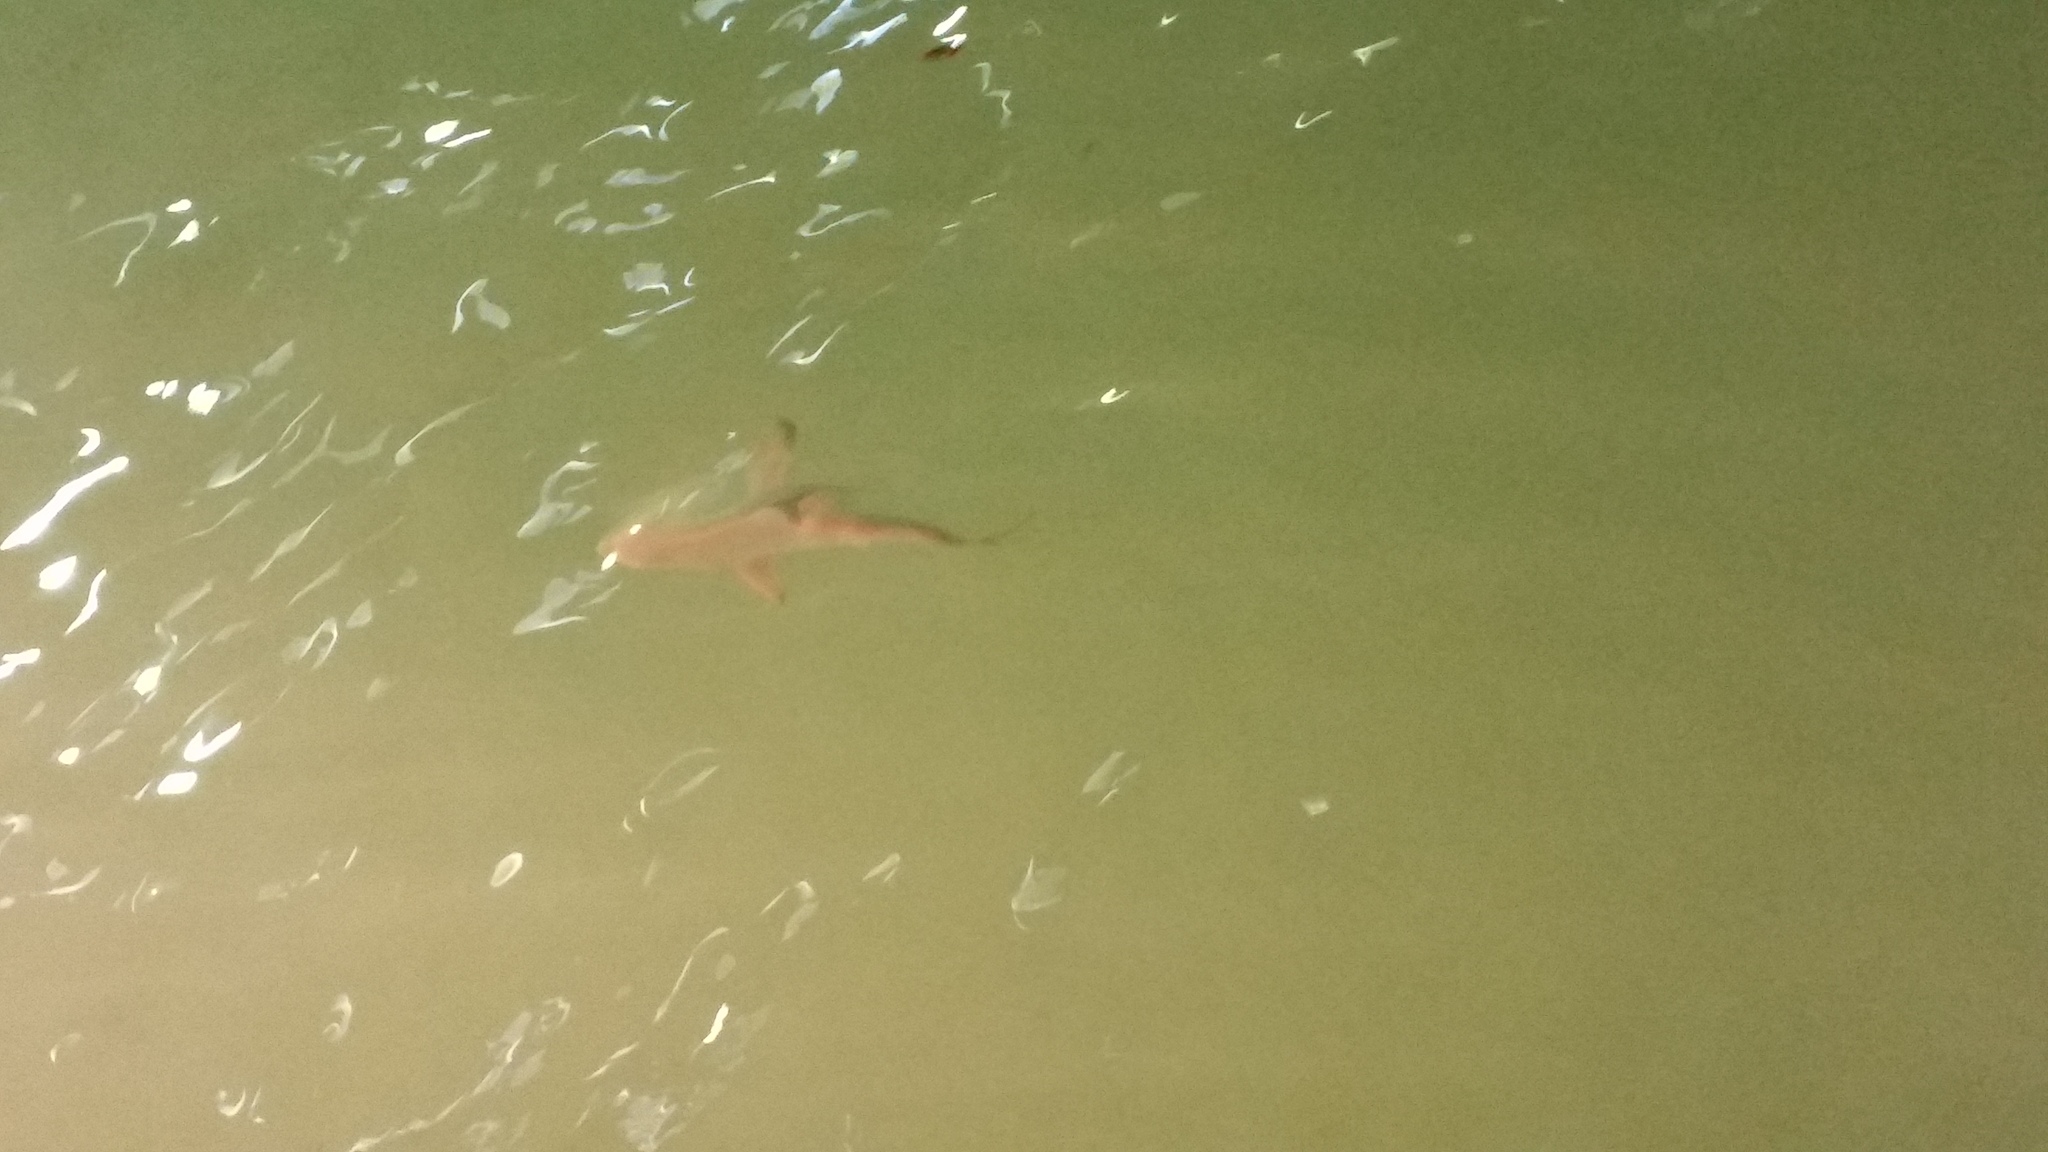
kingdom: Animalia
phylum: Chordata
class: Elasmobranchii
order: Carcharhiniformes
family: Carcharhinidae
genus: Carcharhinus
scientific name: Carcharhinus limbatus
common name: Blacktip shark
